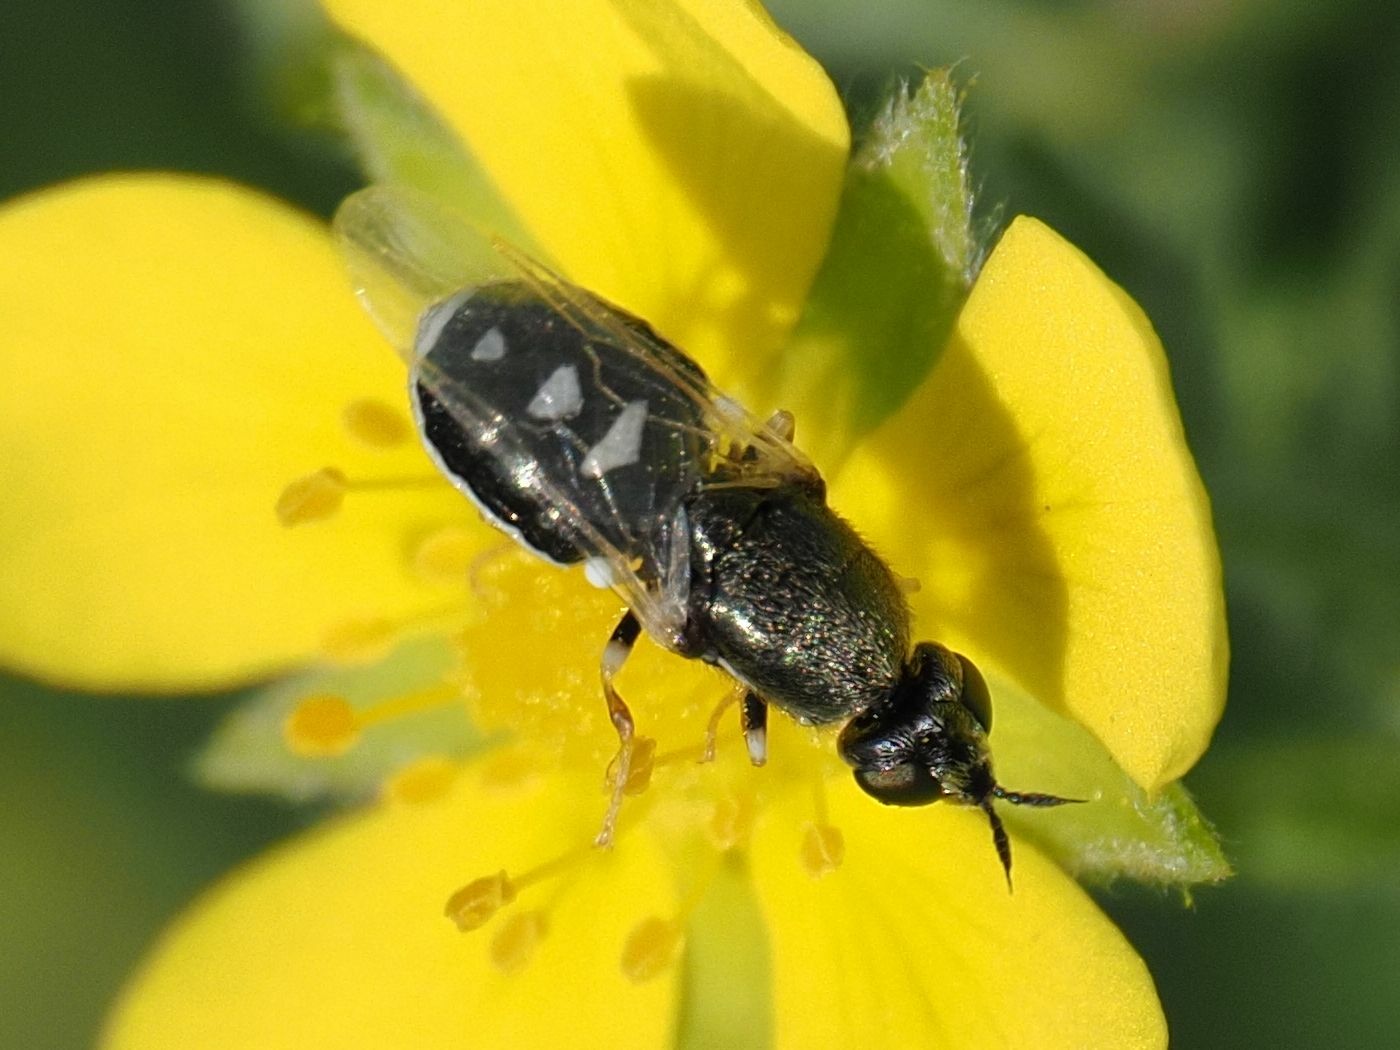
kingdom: Animalia
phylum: Arthropoda
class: Insecta
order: Diptera
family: Stratiomyidae
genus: Nemotelus
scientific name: Nemotelus pantherina
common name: Fen snout
